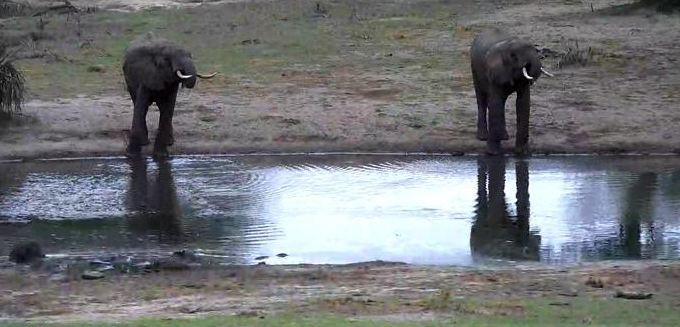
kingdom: Animalia
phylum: Chordata
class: Mammalia
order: Proboscidea
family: Elephantidae
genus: Loxodonta
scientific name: Loxodonta africana
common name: African elephant
